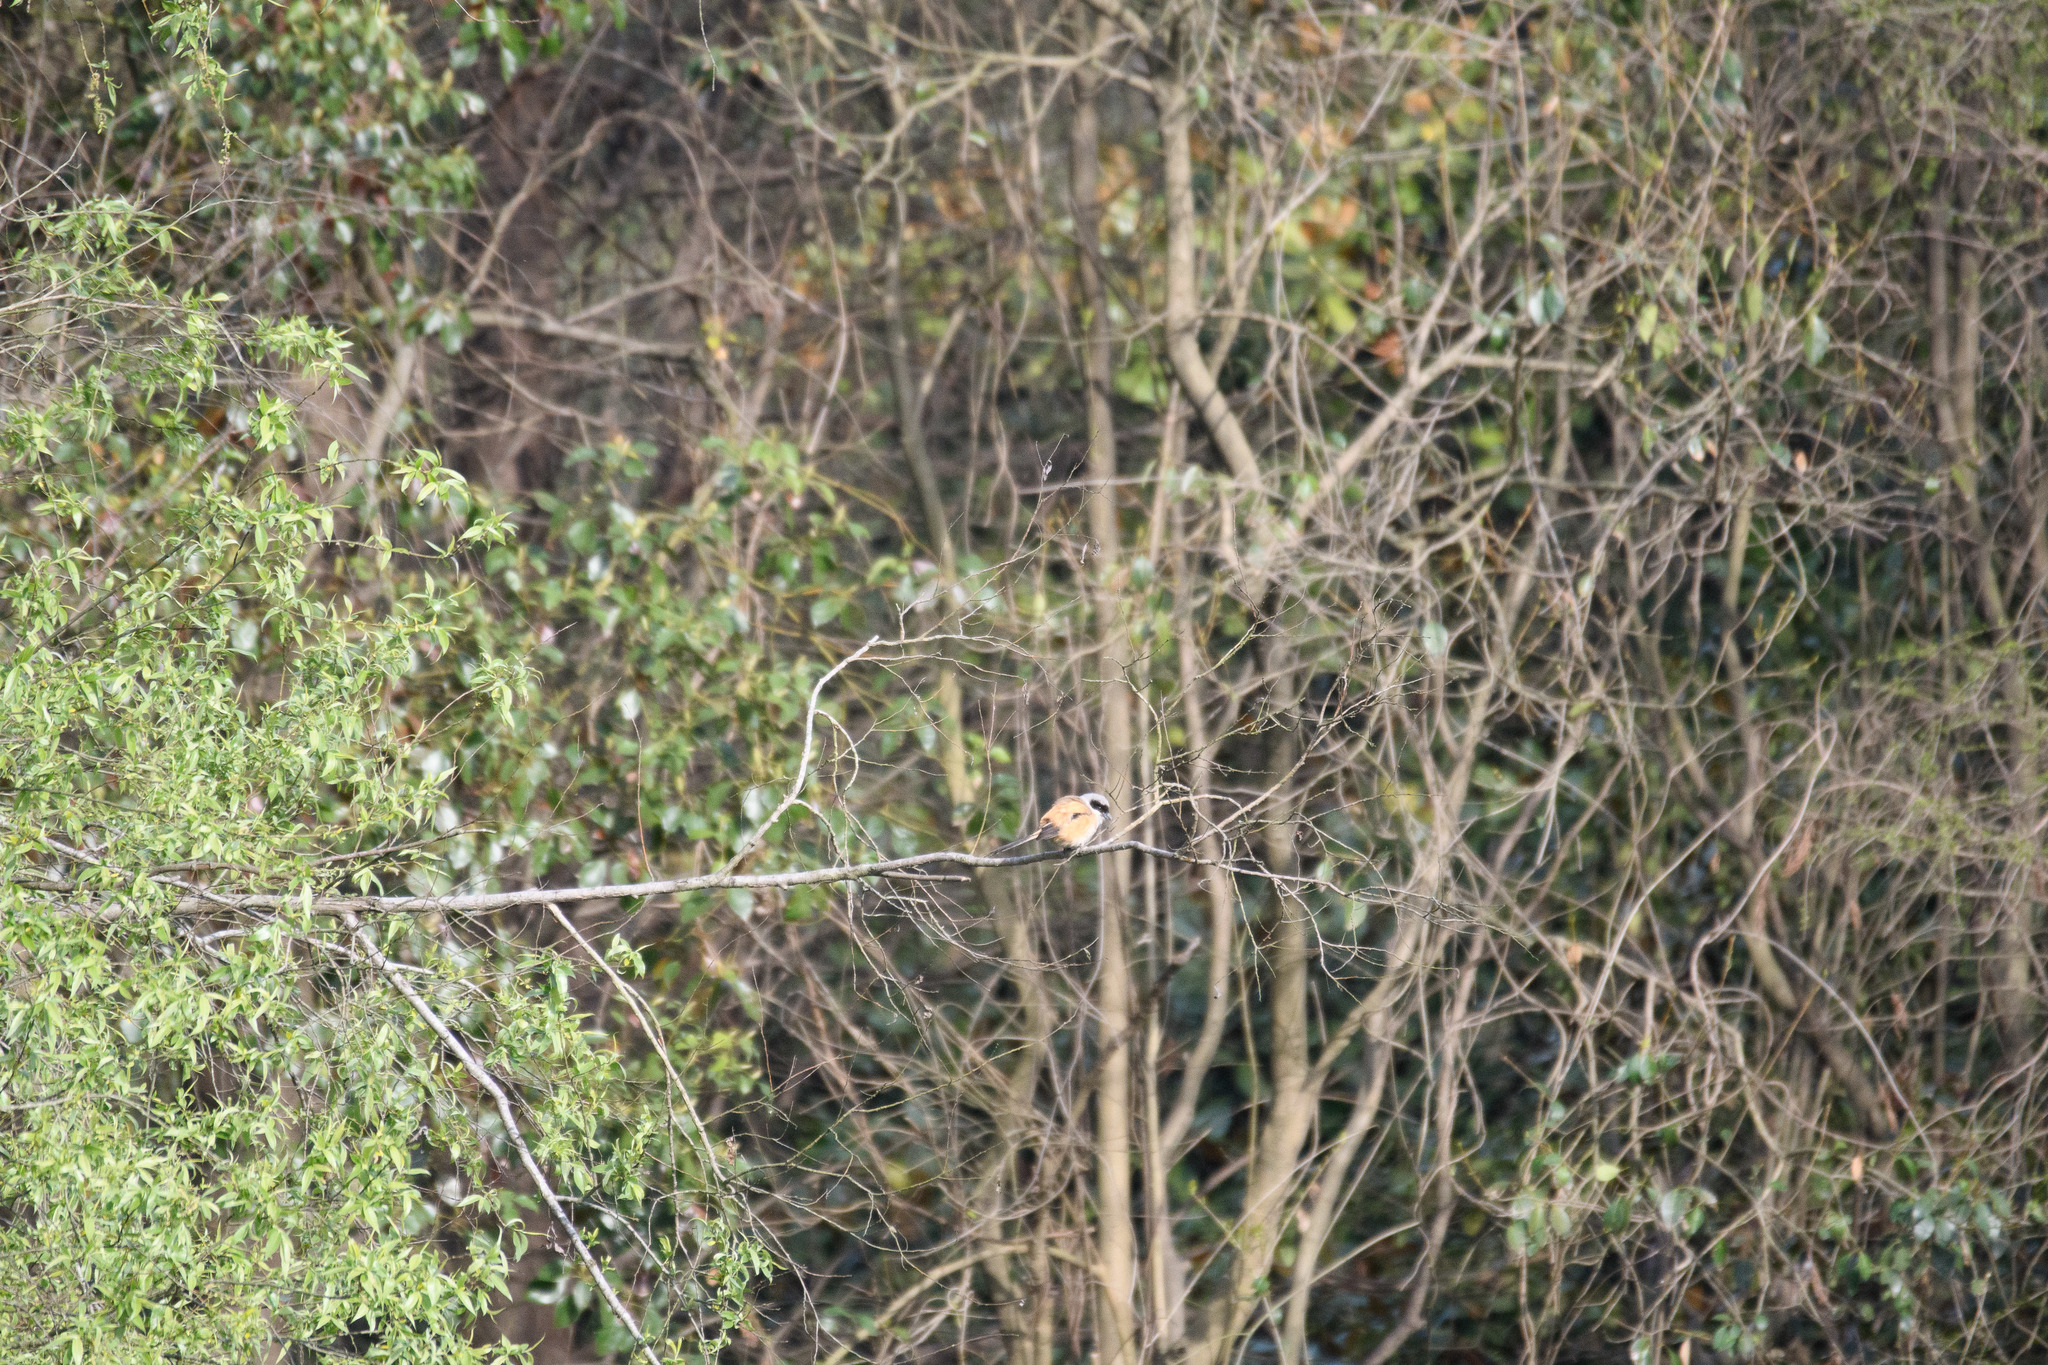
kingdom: Animalia
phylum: Chordata
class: Aves
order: Passeriformes
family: Laniidae
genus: Lanius
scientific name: Lanius schach
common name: Long-tailed shrike
